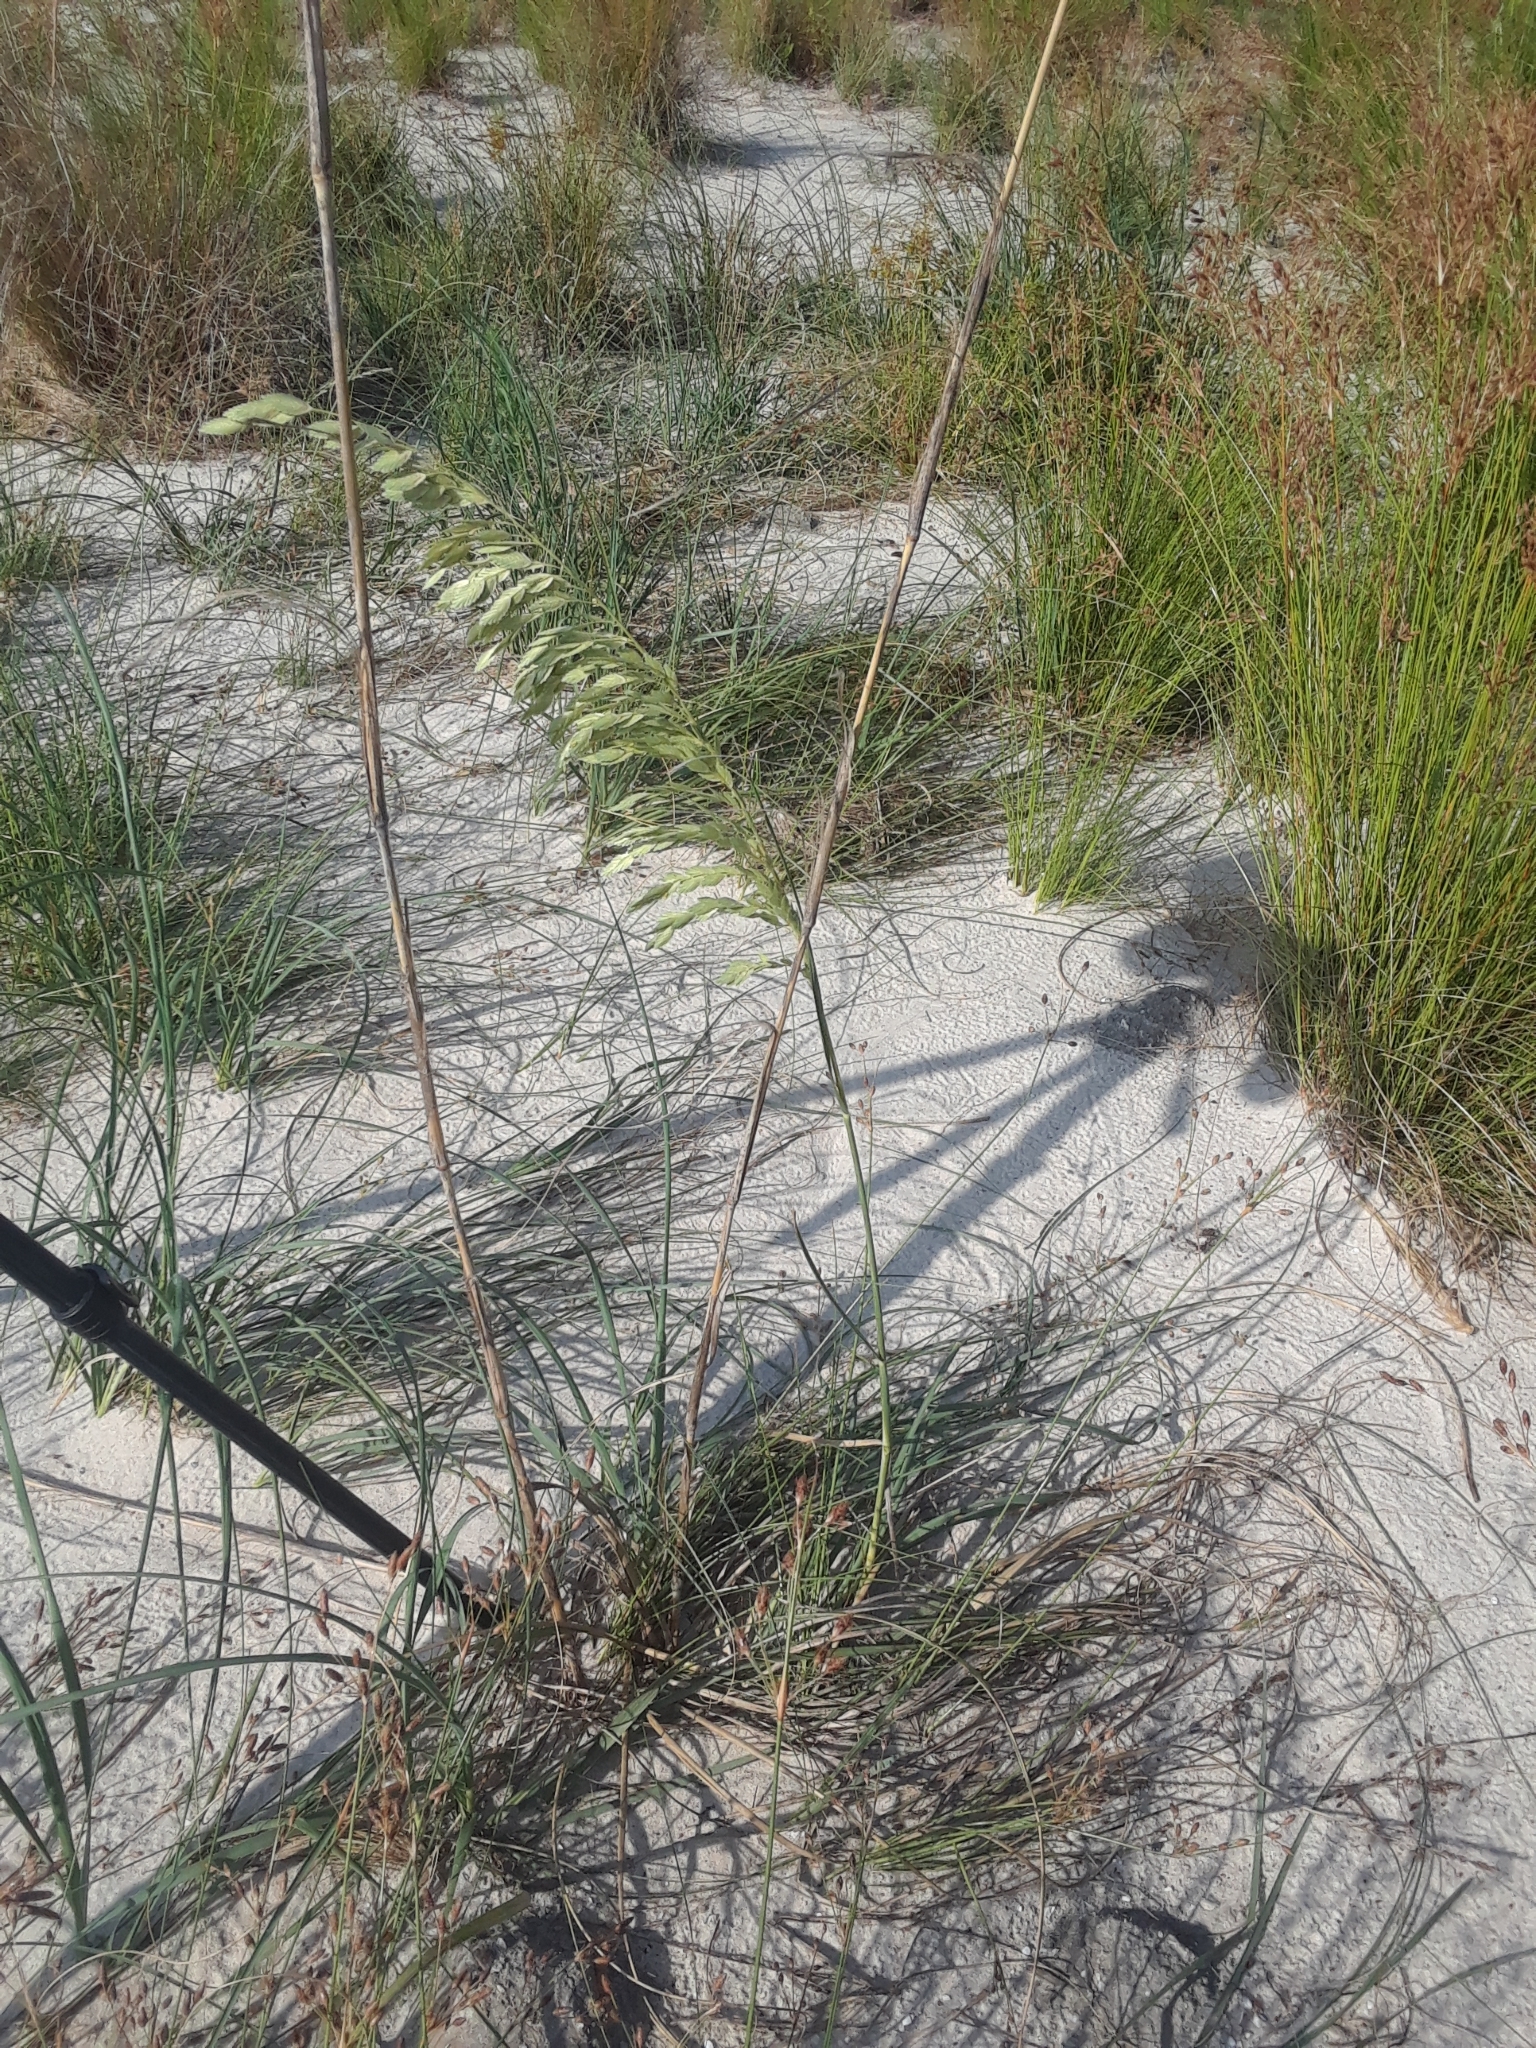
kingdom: Plantae
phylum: Tracheophyta
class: Liliopsida
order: Poales
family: Poaceae
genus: Uniola
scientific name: Uniola paniculata
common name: Seaside-oats
